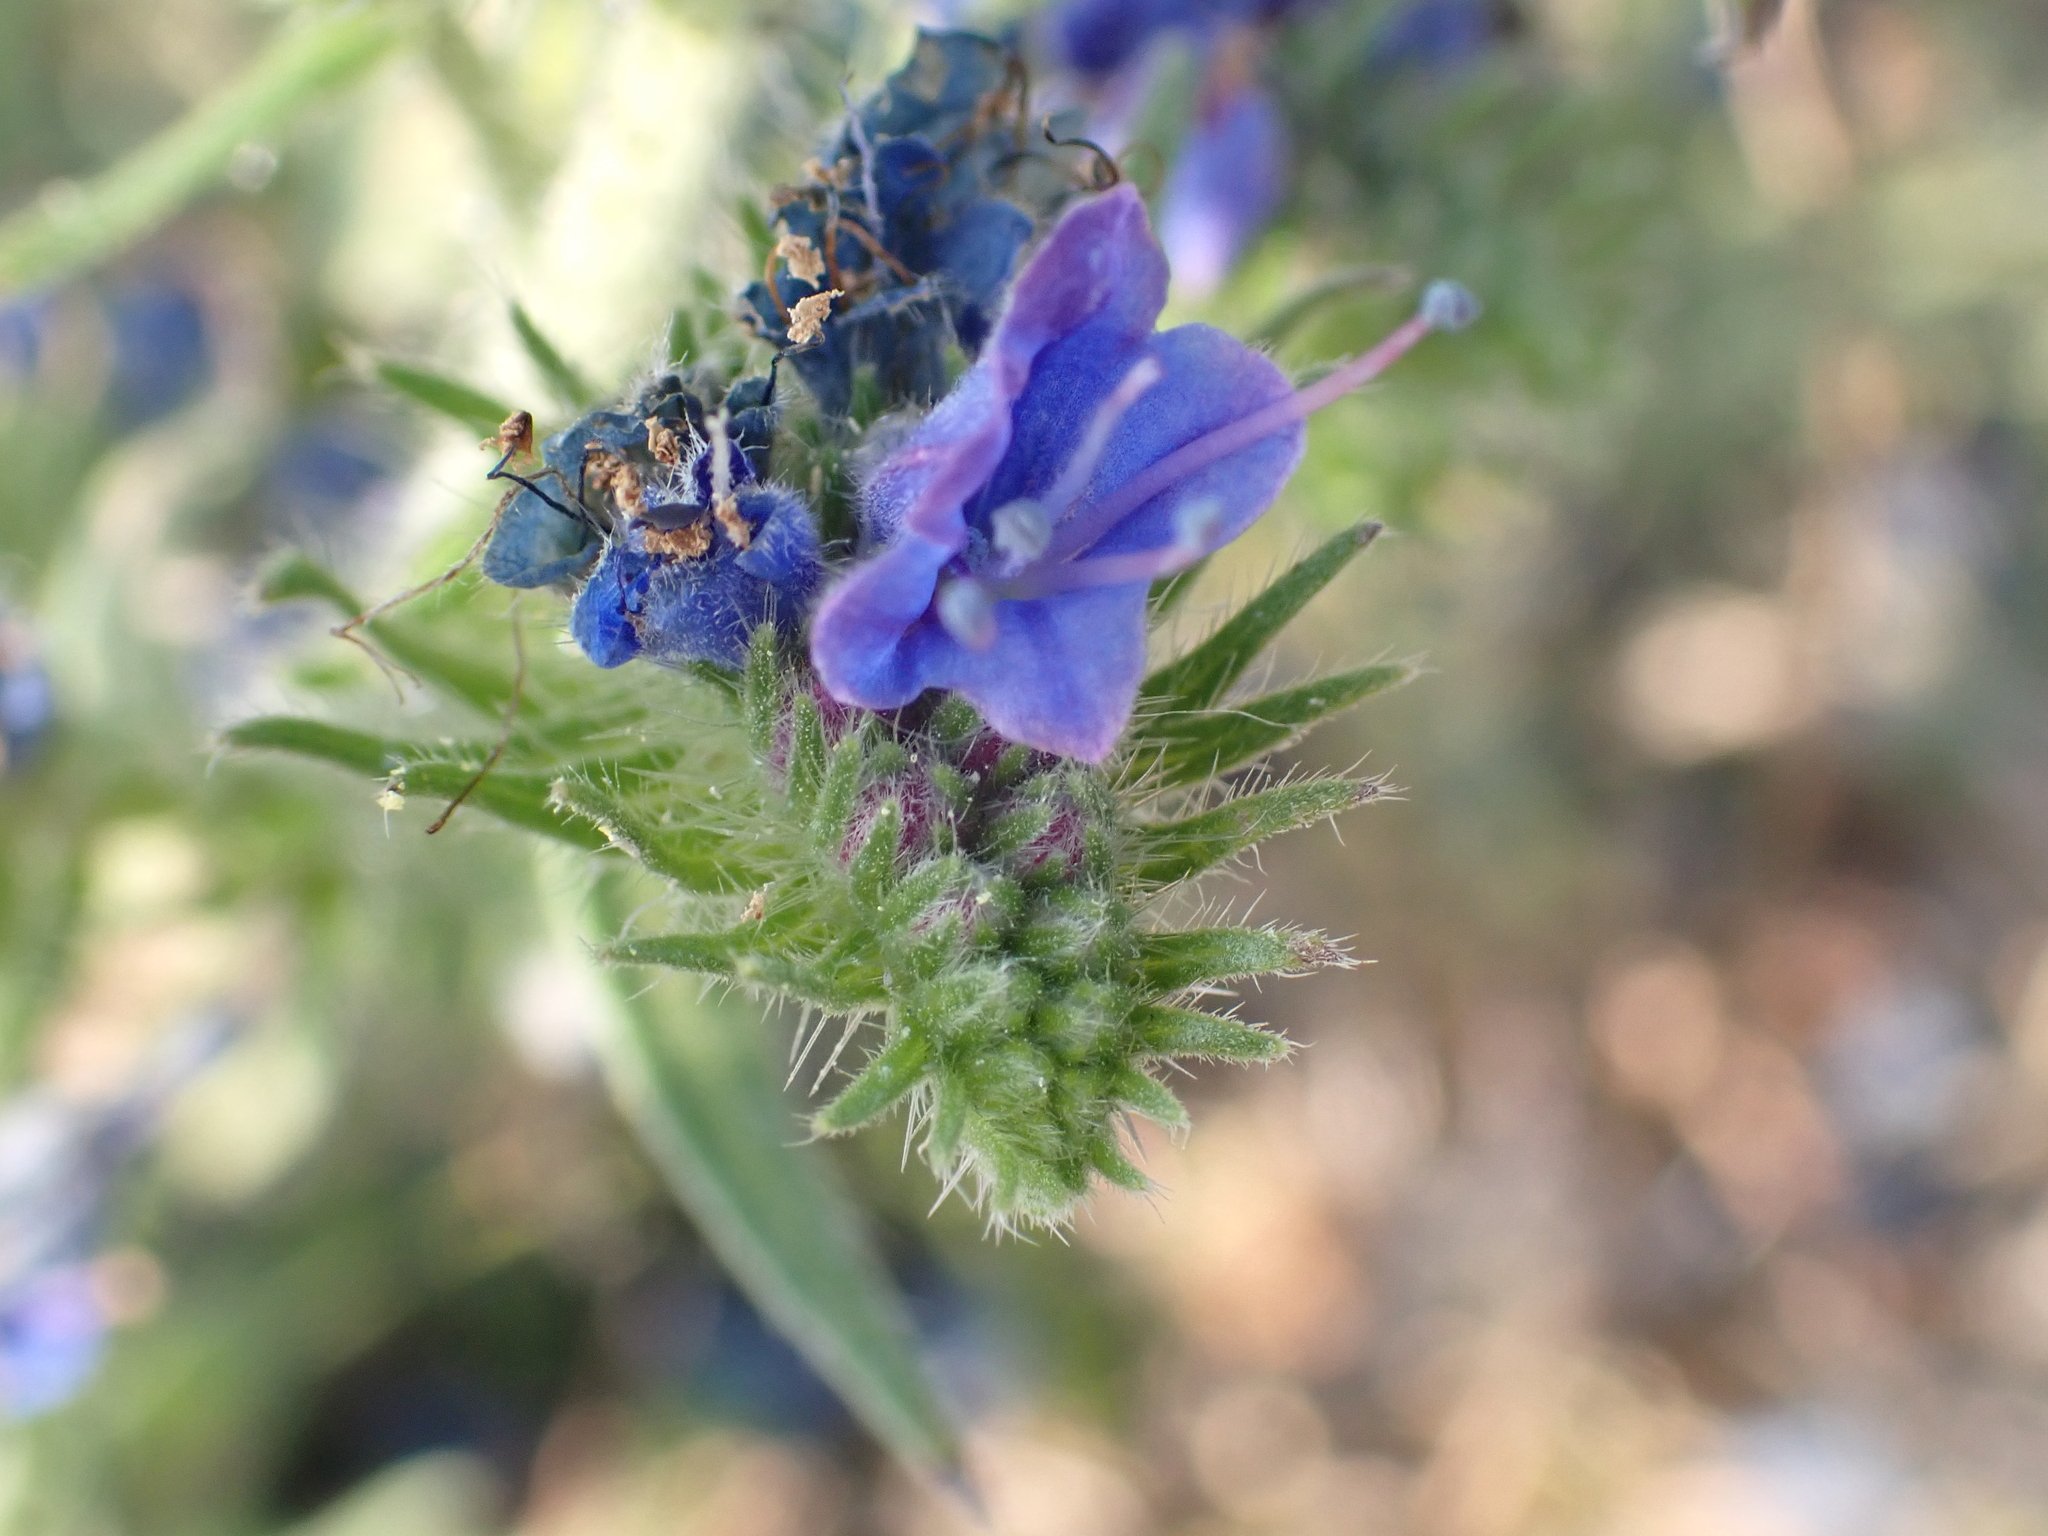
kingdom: Plantae
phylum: Tracheophyta
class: Magnoliopsida
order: Boraginales
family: Boraginaceae
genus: Echium
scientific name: Echium vulgare
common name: Common viper's bugloss
